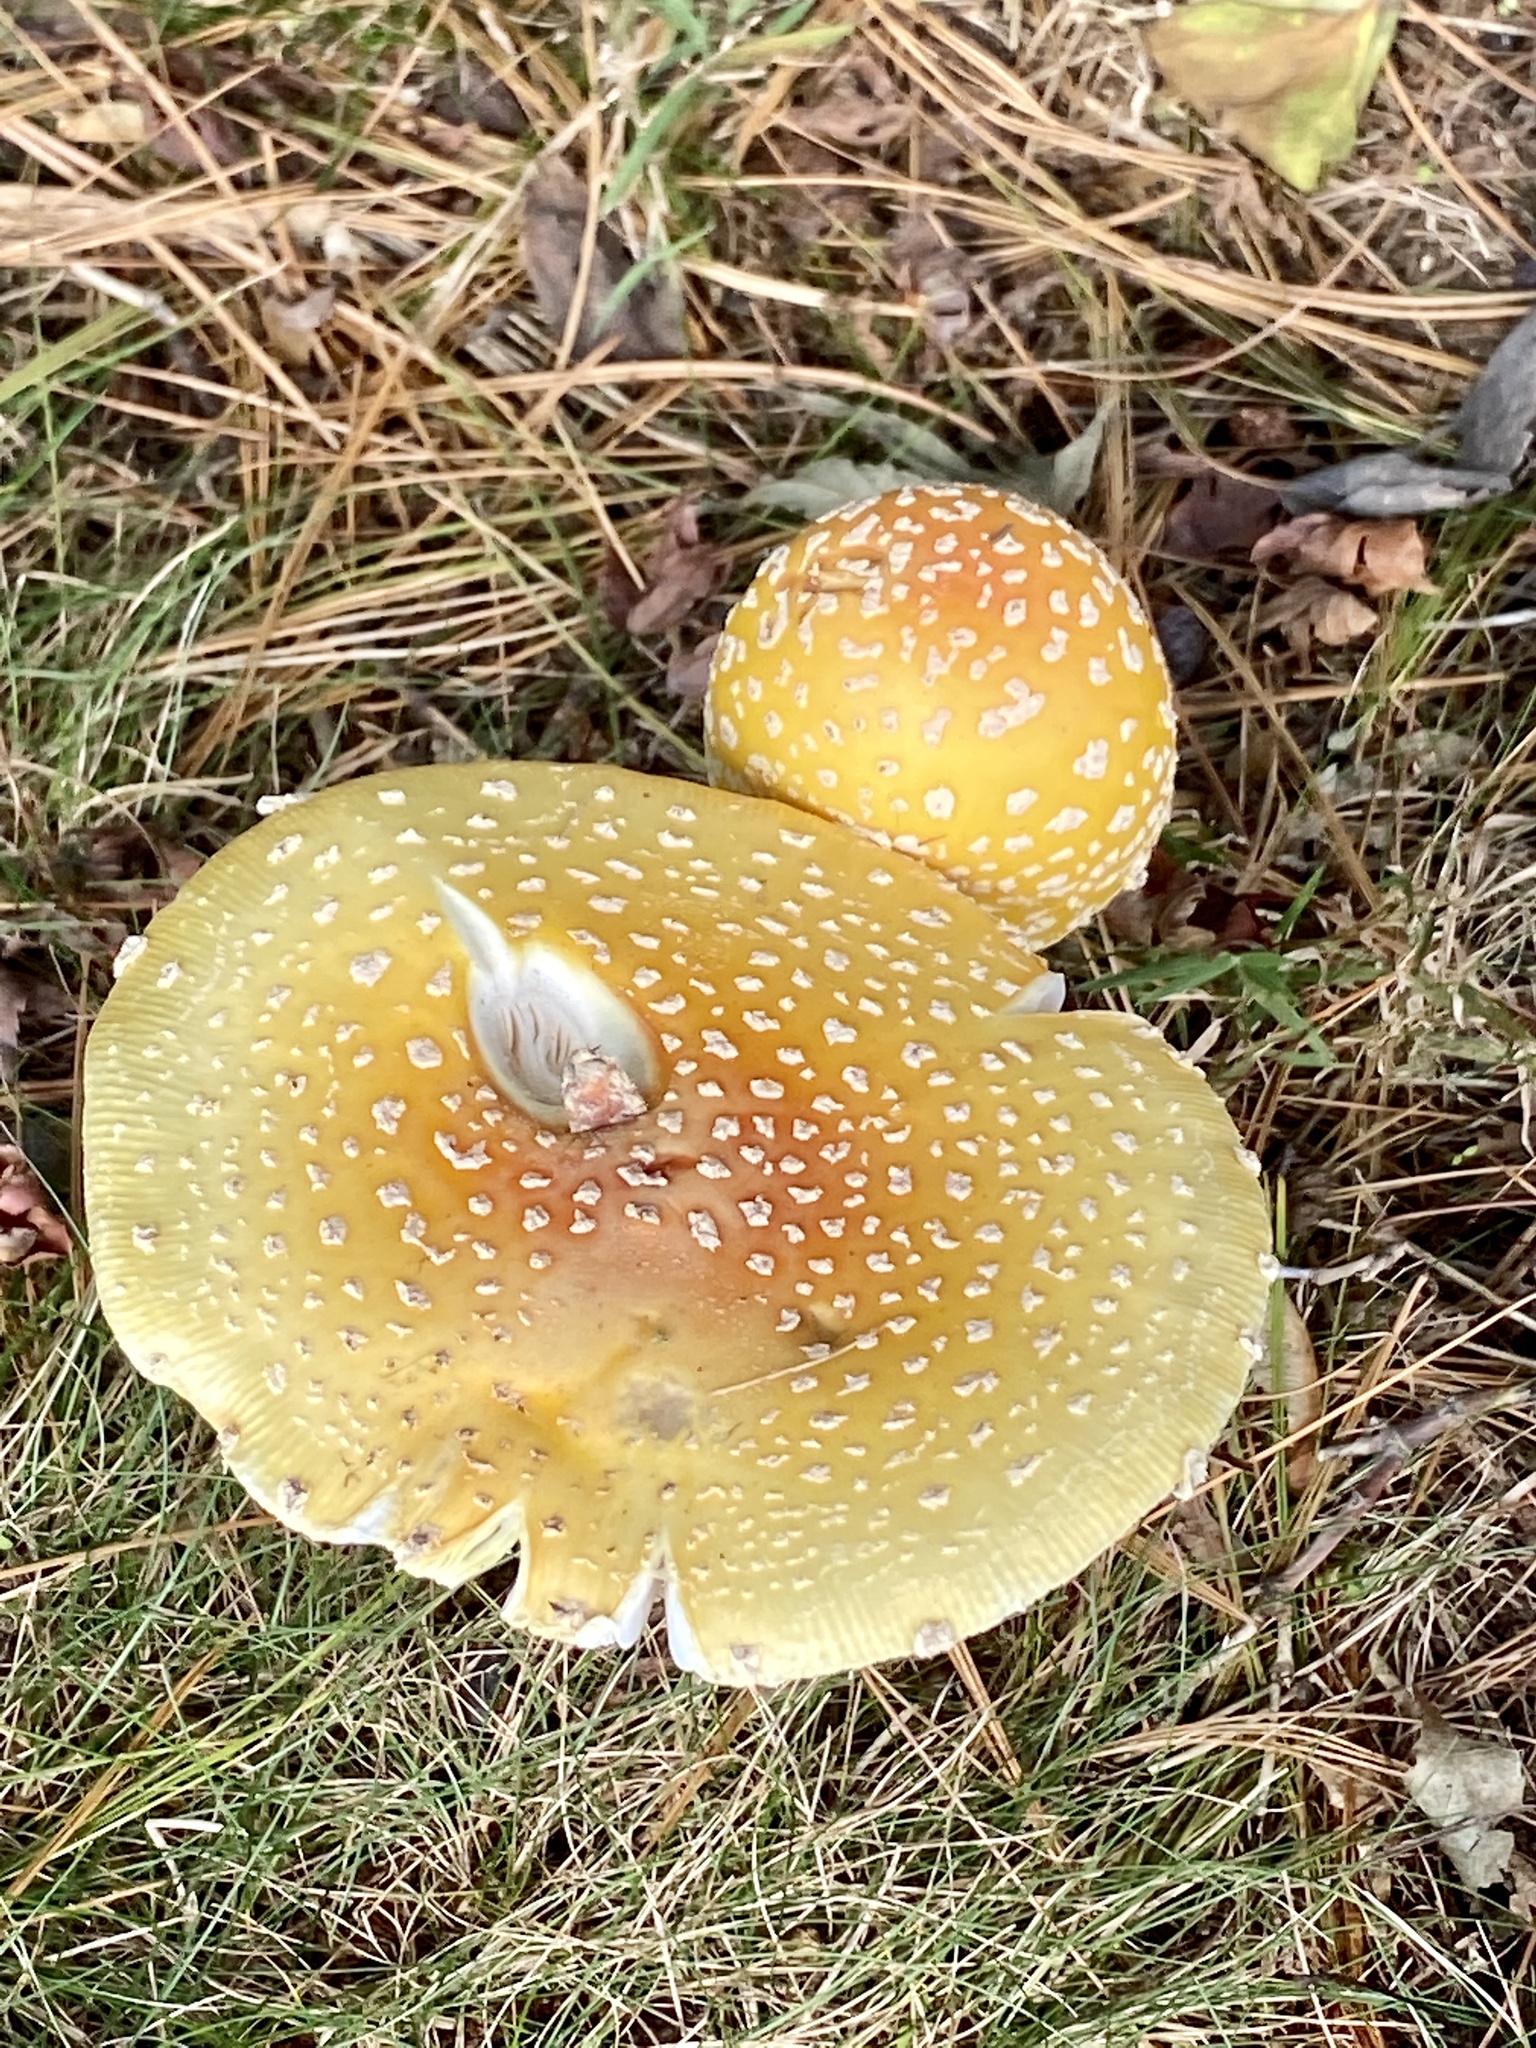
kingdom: Fungi
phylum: Basidiomycota
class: Agaricomycetes
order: Agaricales
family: Amanitaceae
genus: Amanita
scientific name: Amanita muscaria
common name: Fly agaric
